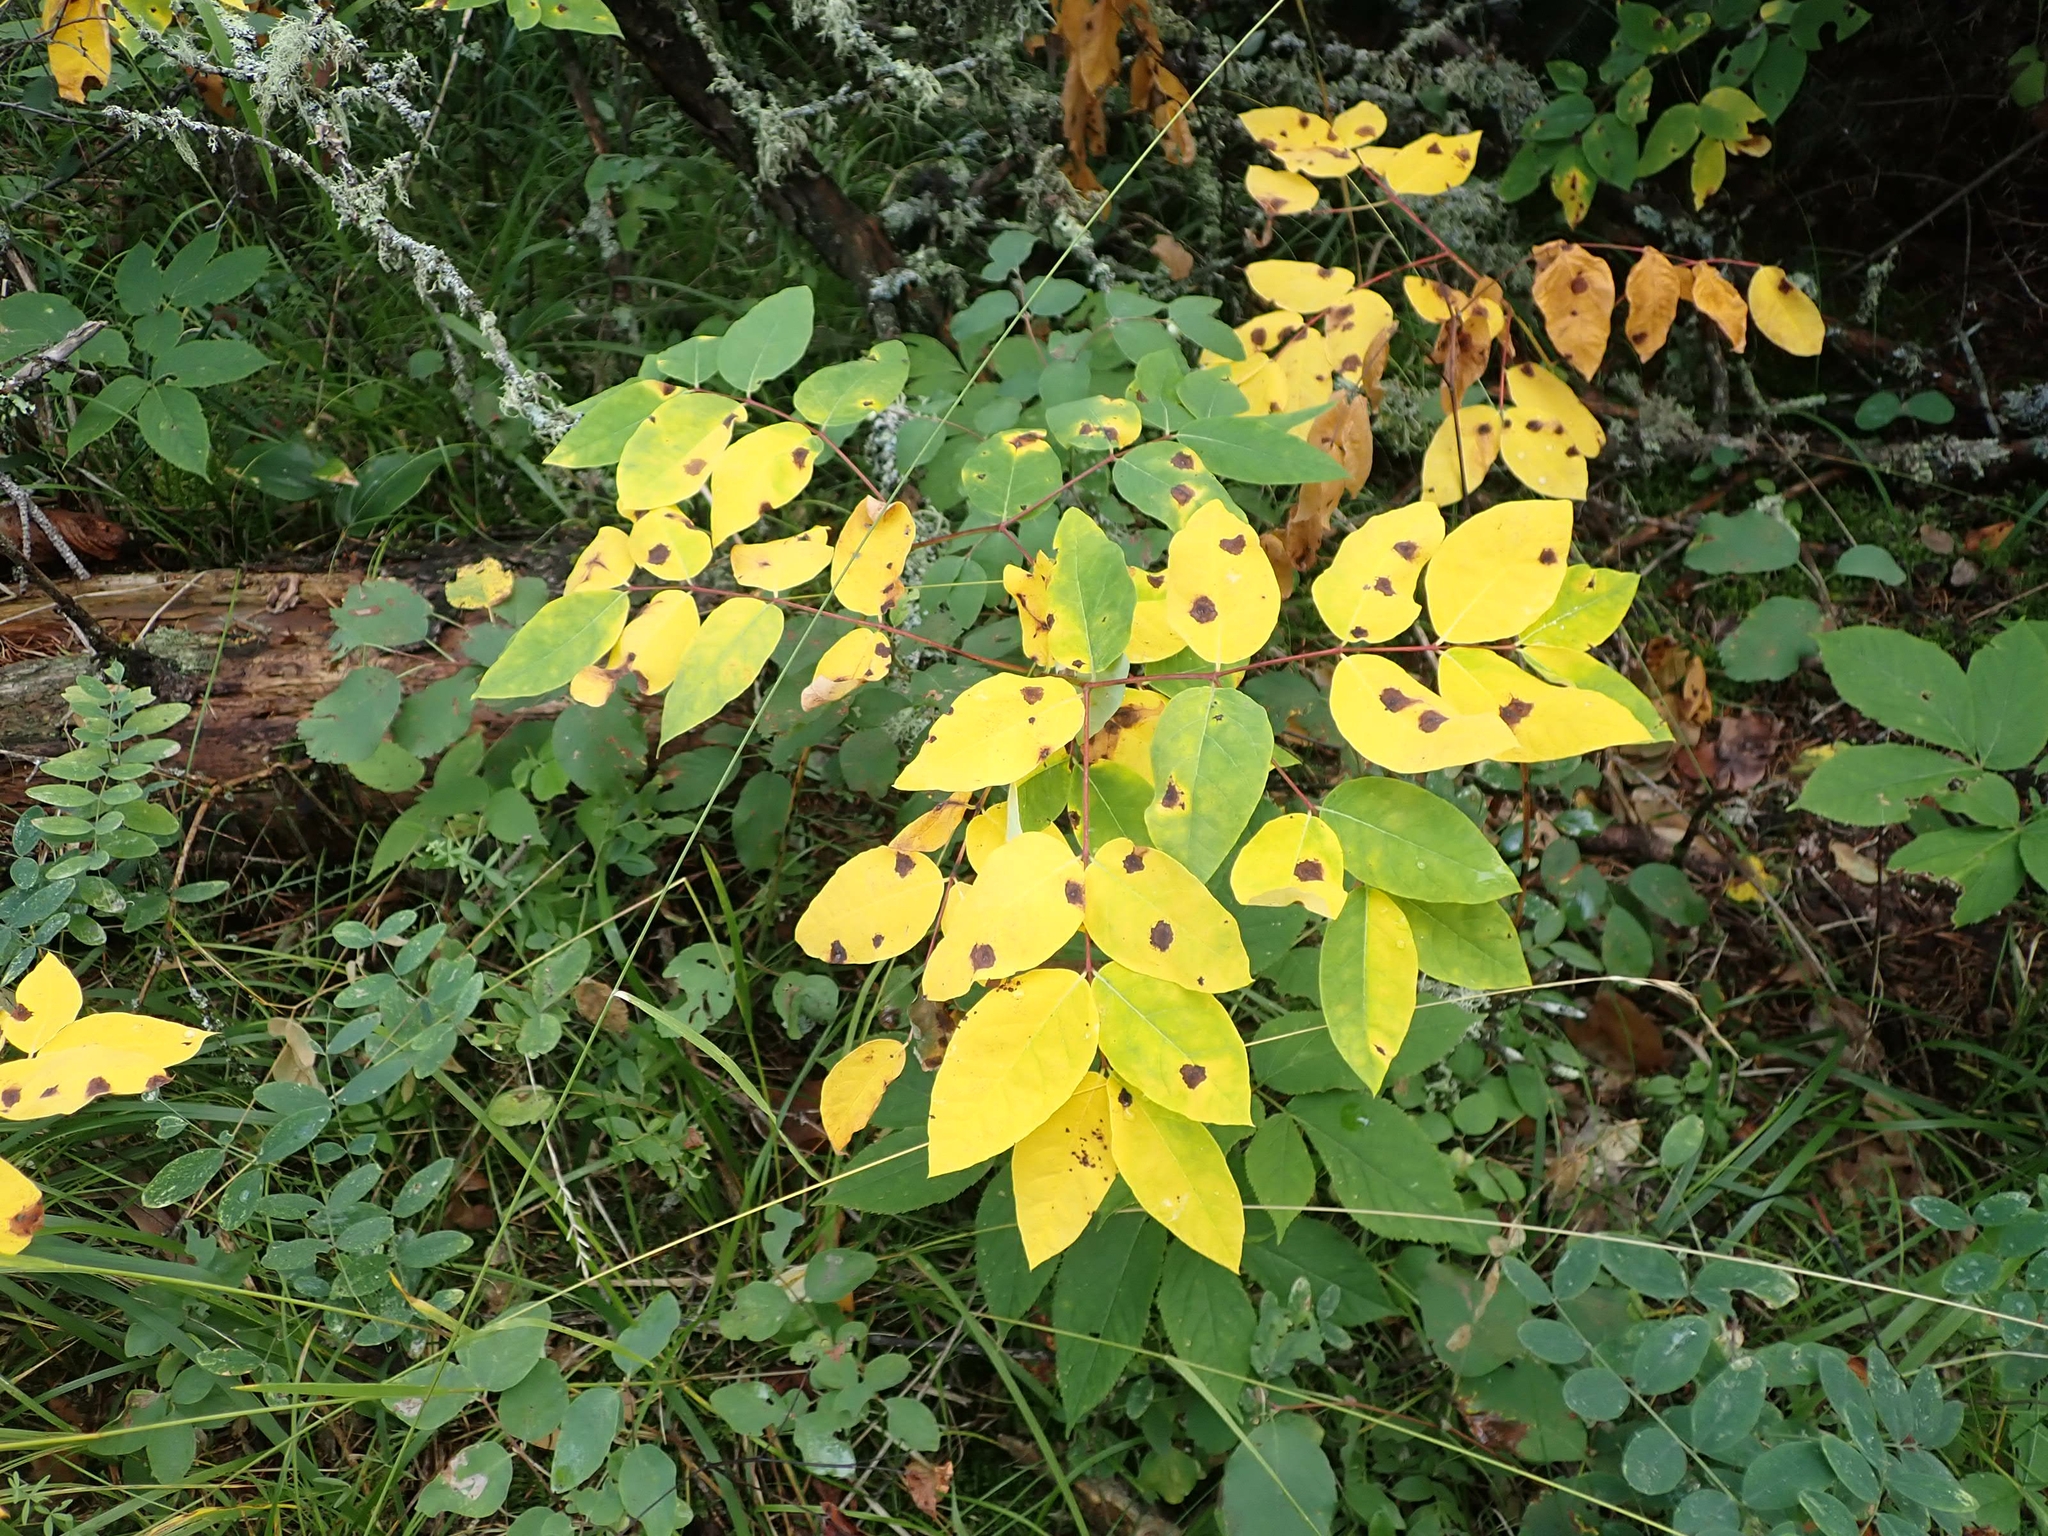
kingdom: Plantae
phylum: Tracheophyta
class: Magnoliopsida
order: Gentianales
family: Apocynaceae
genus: Apocynum
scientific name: Apocynum androsaemifolium
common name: Spreading dogbane
